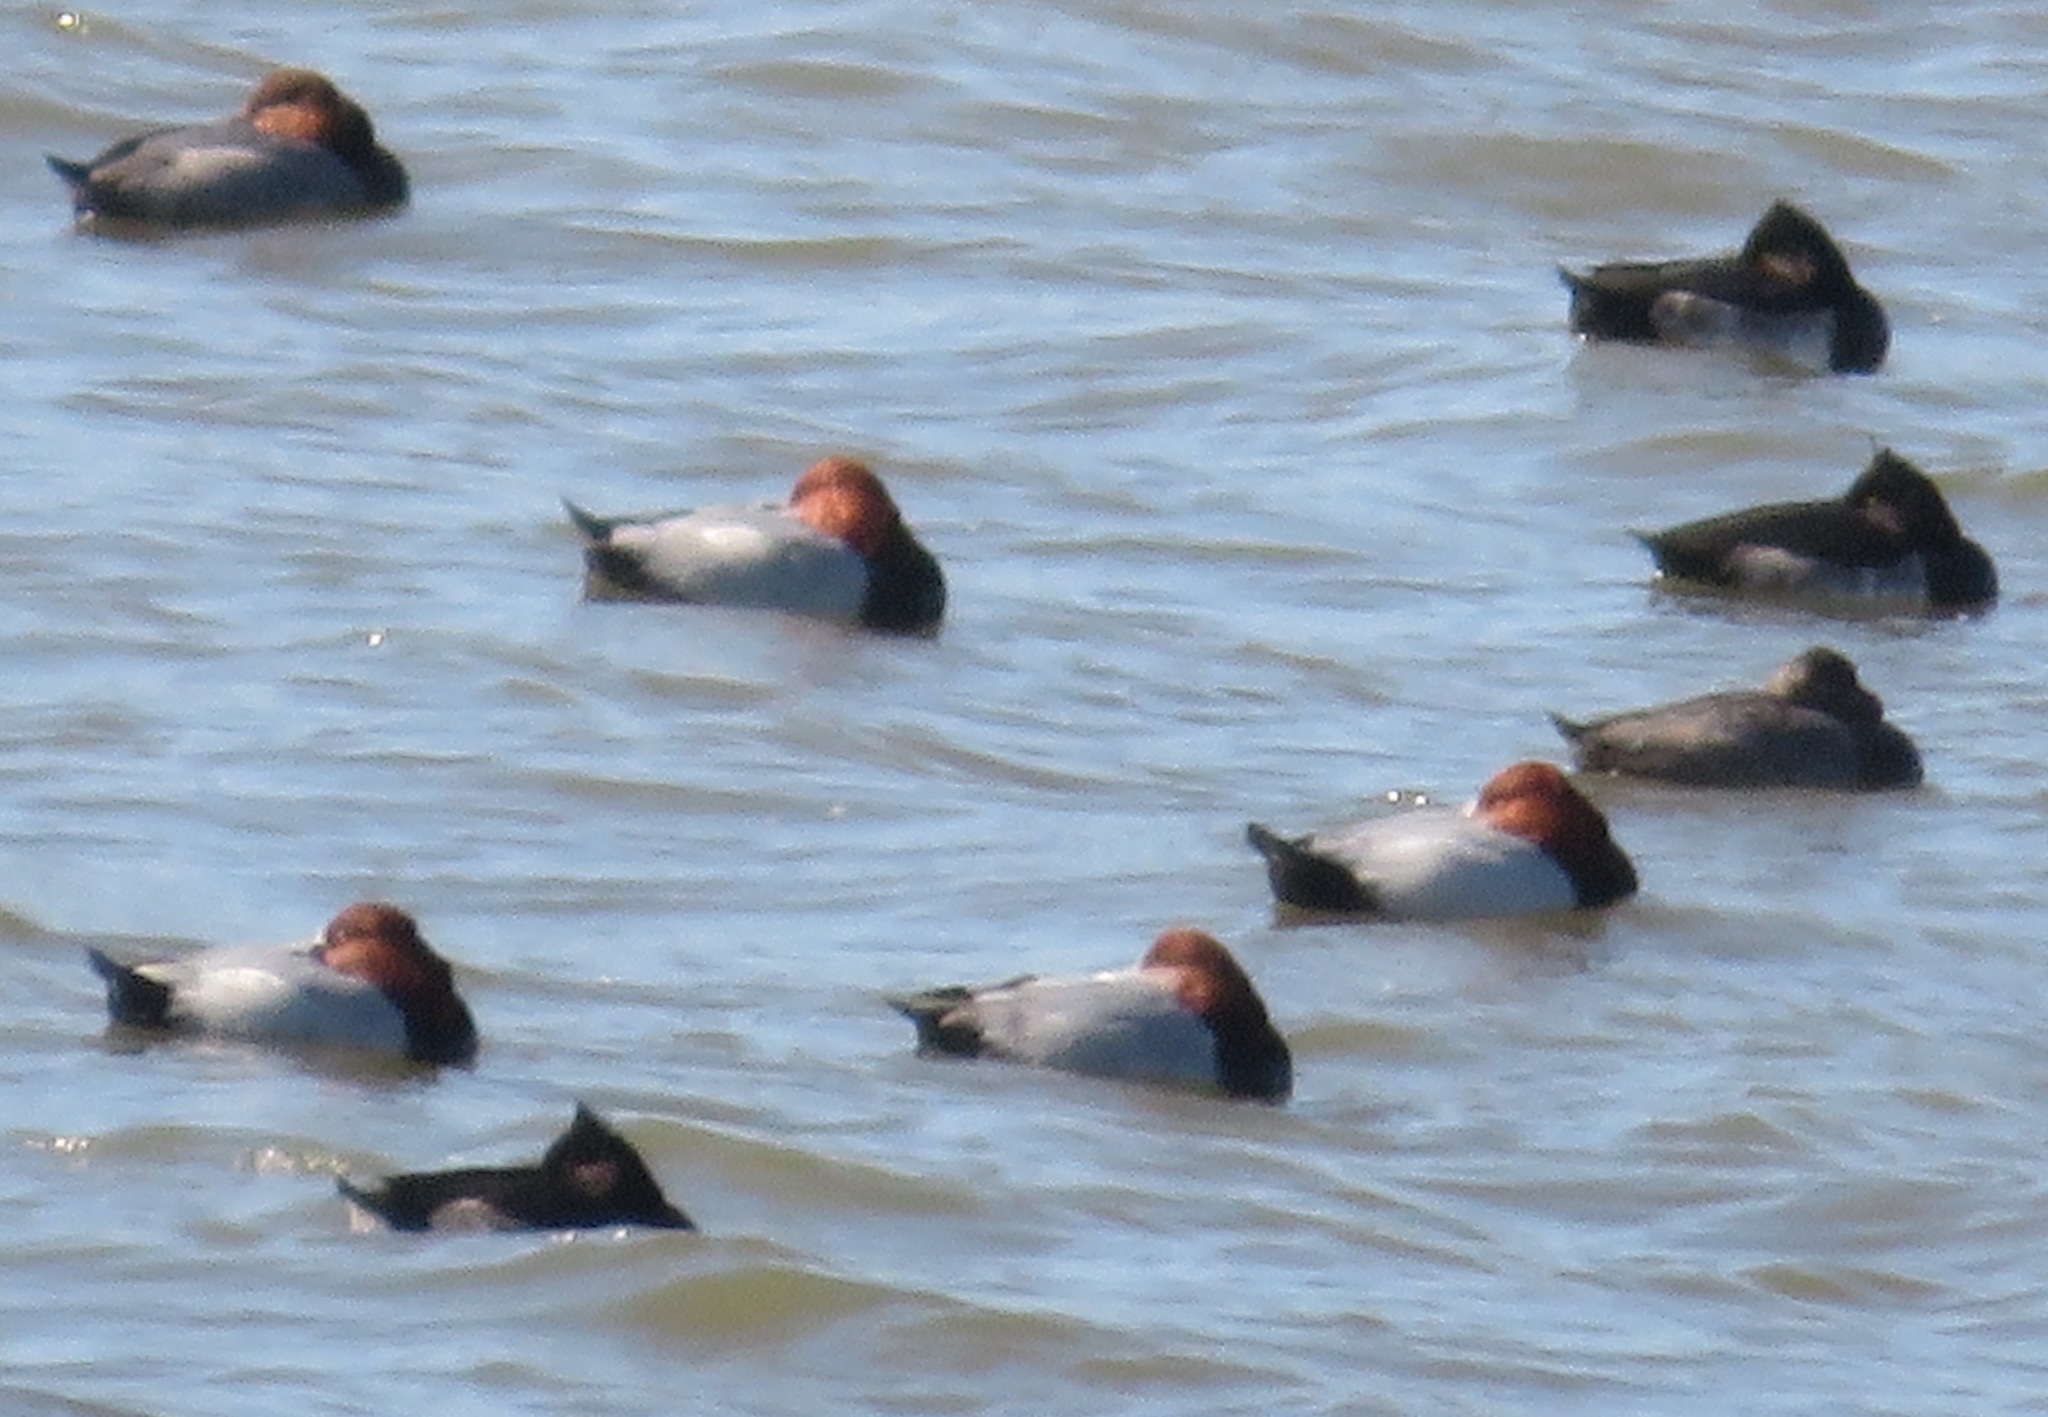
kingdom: Animalia
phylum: Chordata
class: Aves
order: Anseriformes
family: Anatidae
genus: Aythya
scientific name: Aythya ferina
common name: Common pochard
